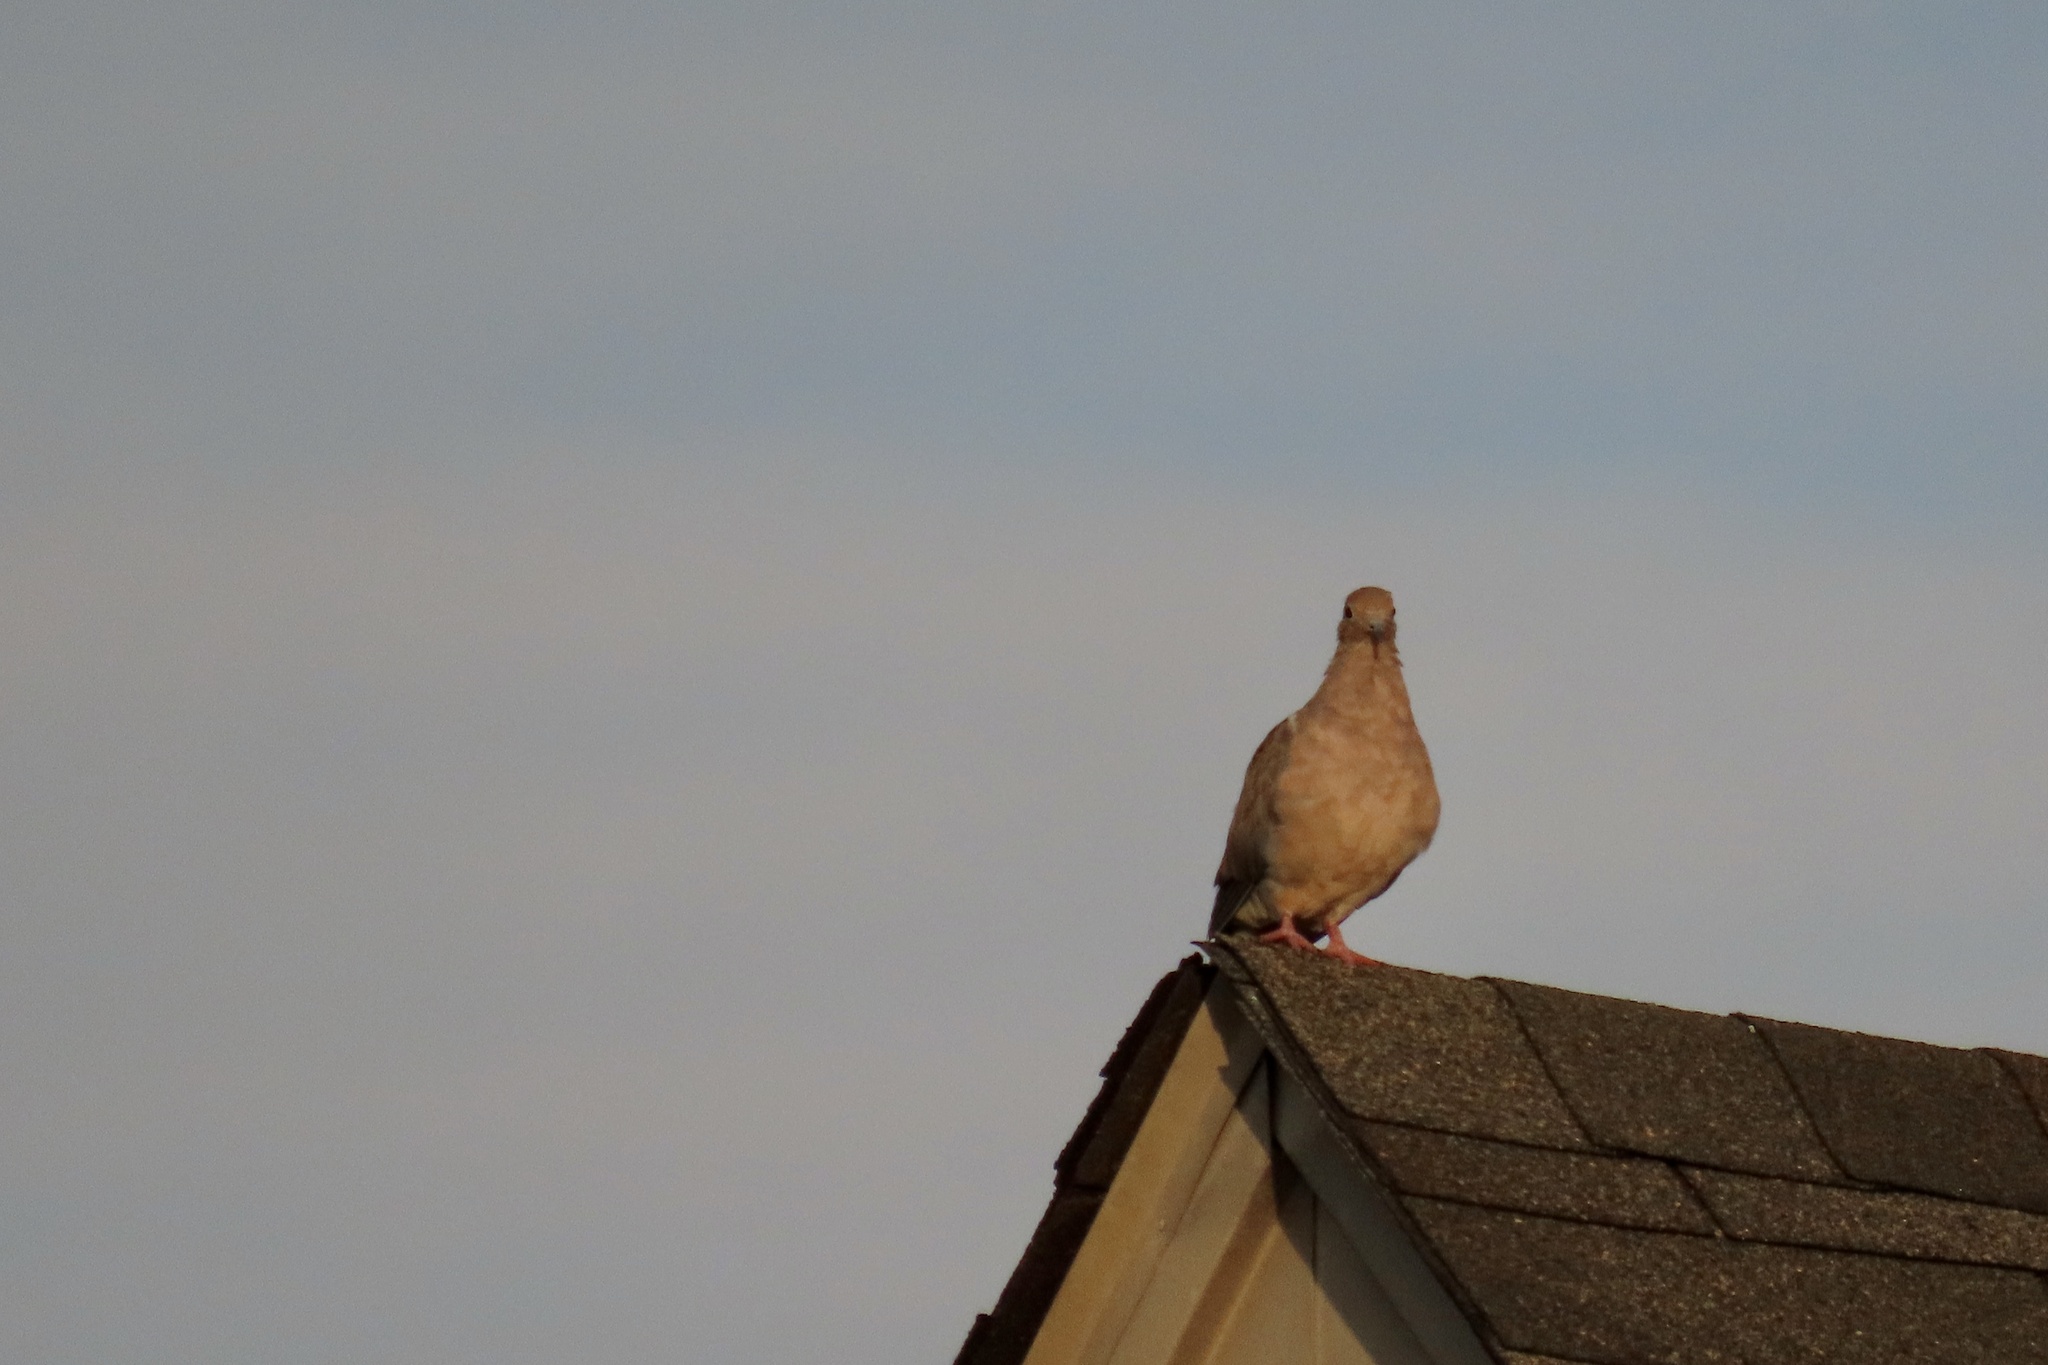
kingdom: Animalia
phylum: Chordata
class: Aves
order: Columbiformes
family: Columbidae
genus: Zenaida
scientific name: Zenaida macroura
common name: Mourning dove
